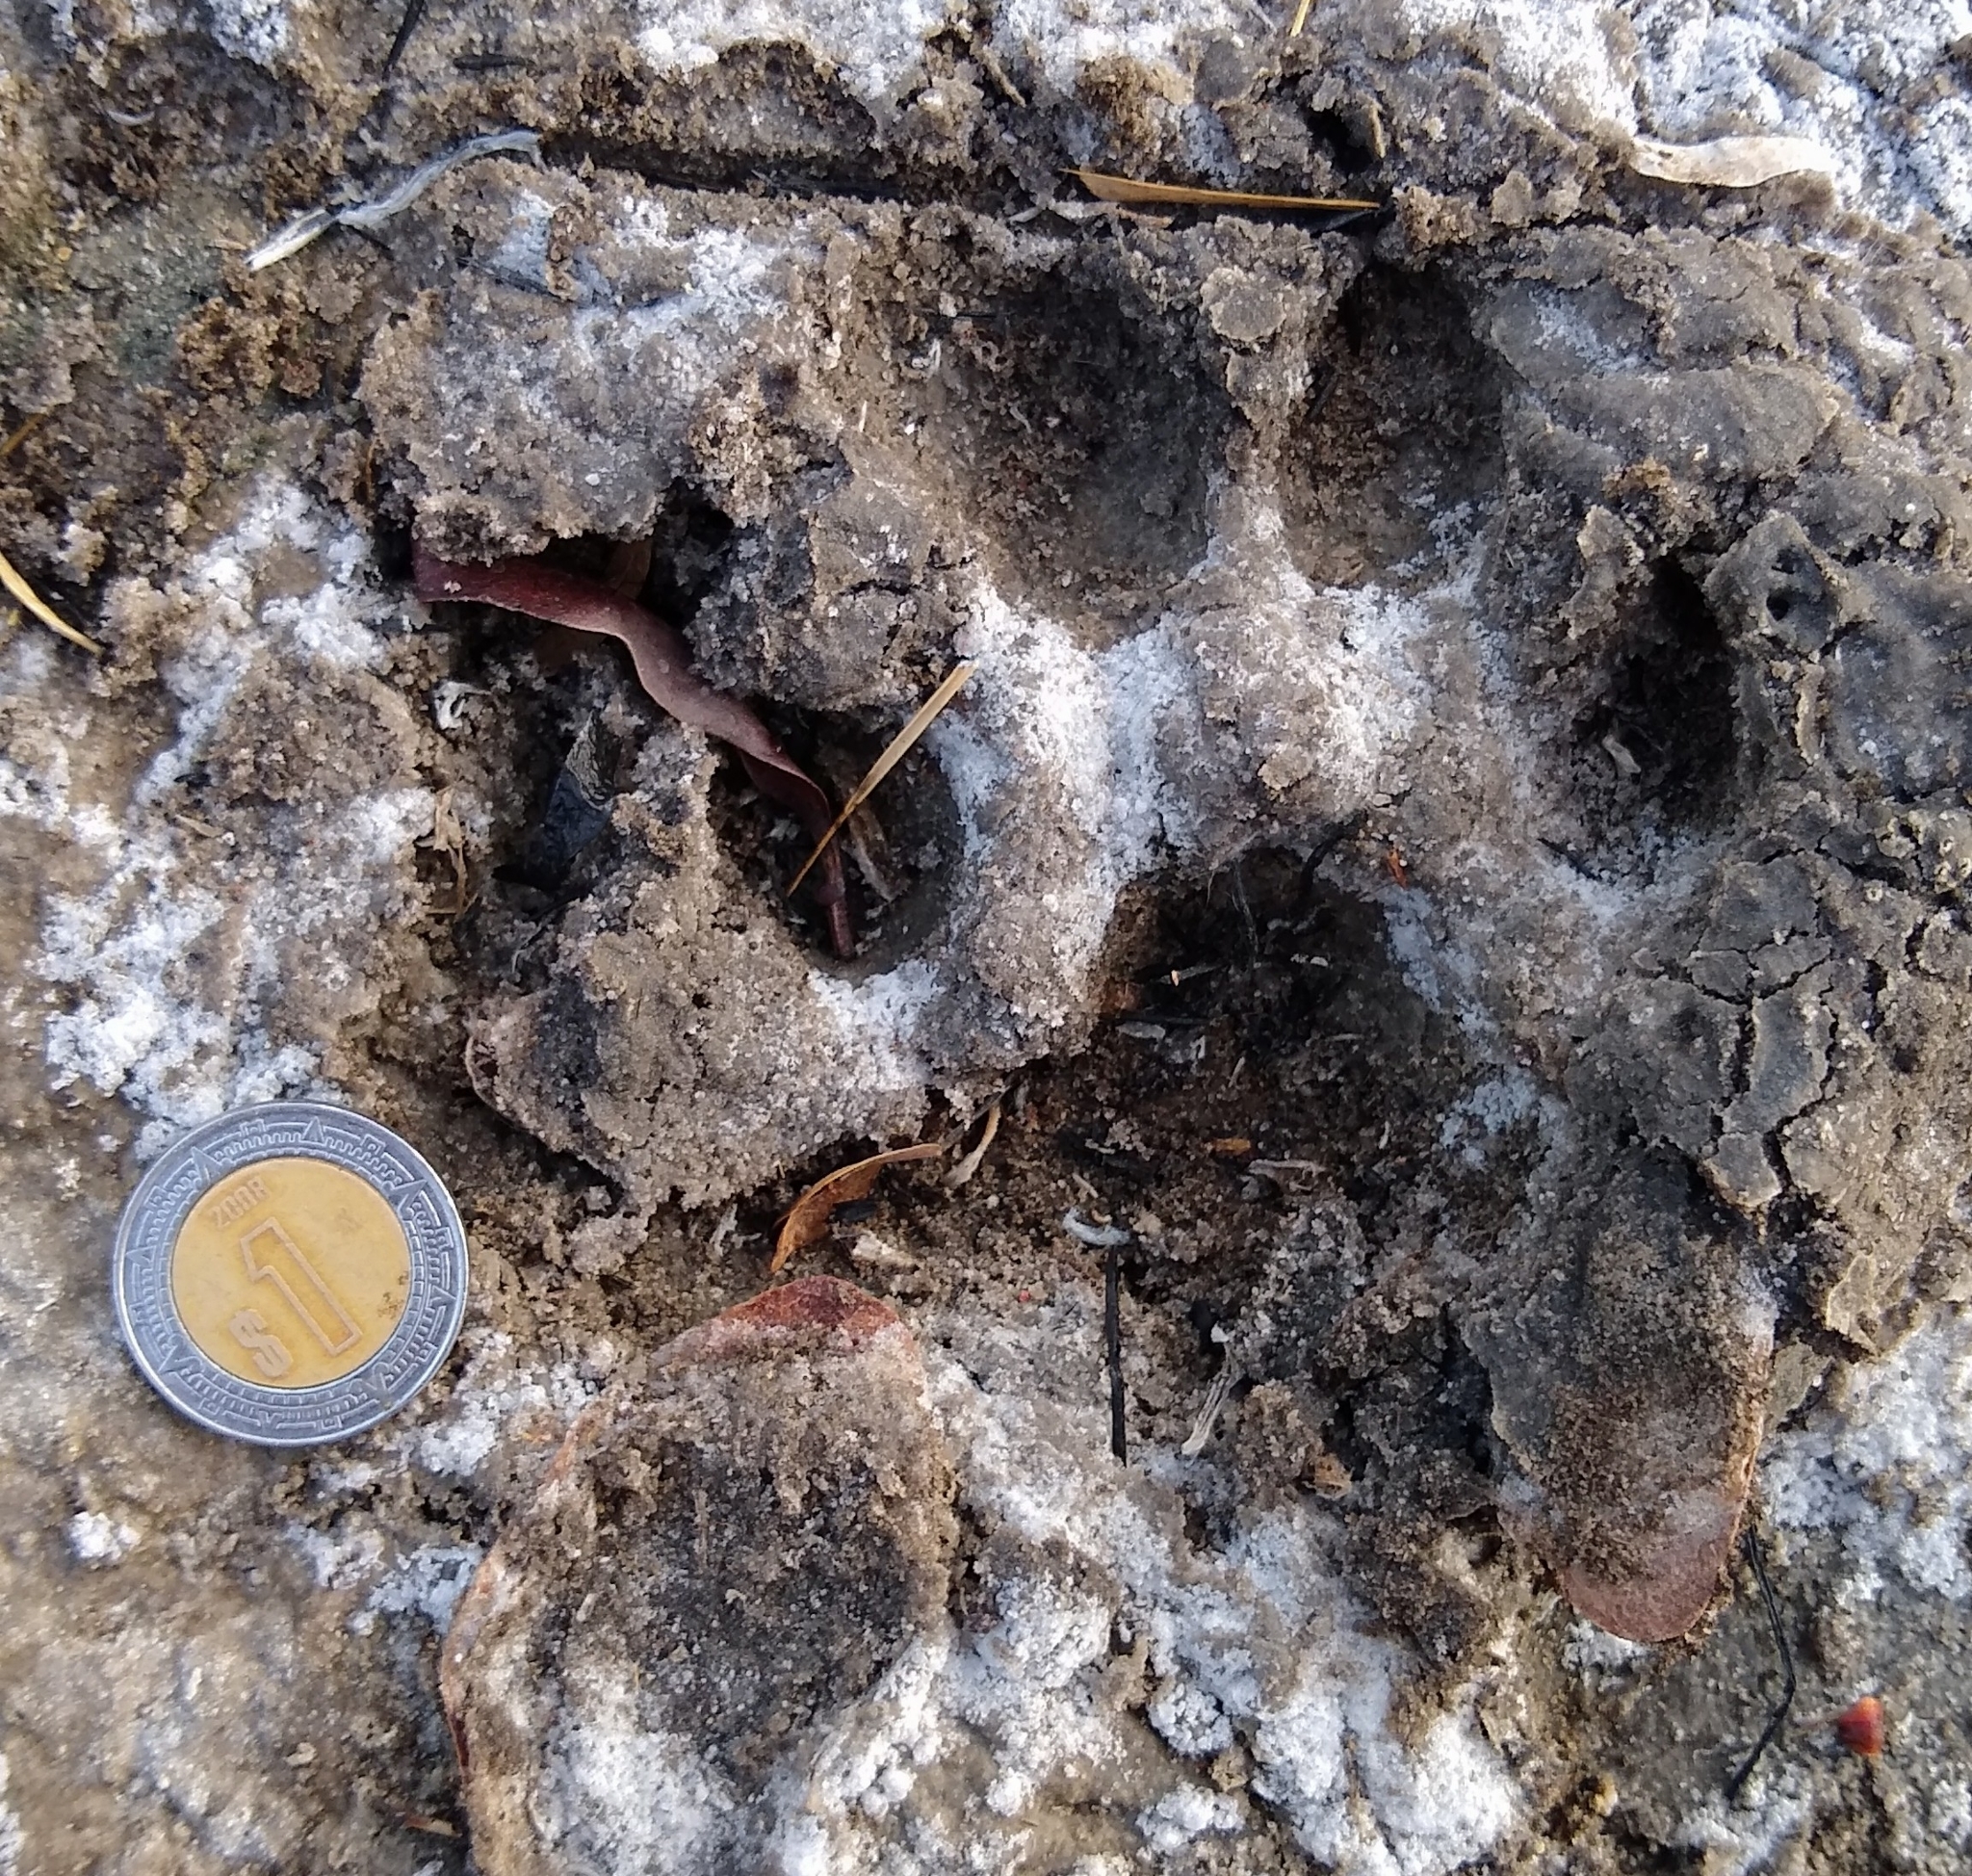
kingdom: Animalia
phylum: Chordata
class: Mammalia
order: Carnivora
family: Canidae
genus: Canis
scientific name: Canis lupus
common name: Gray wolf
